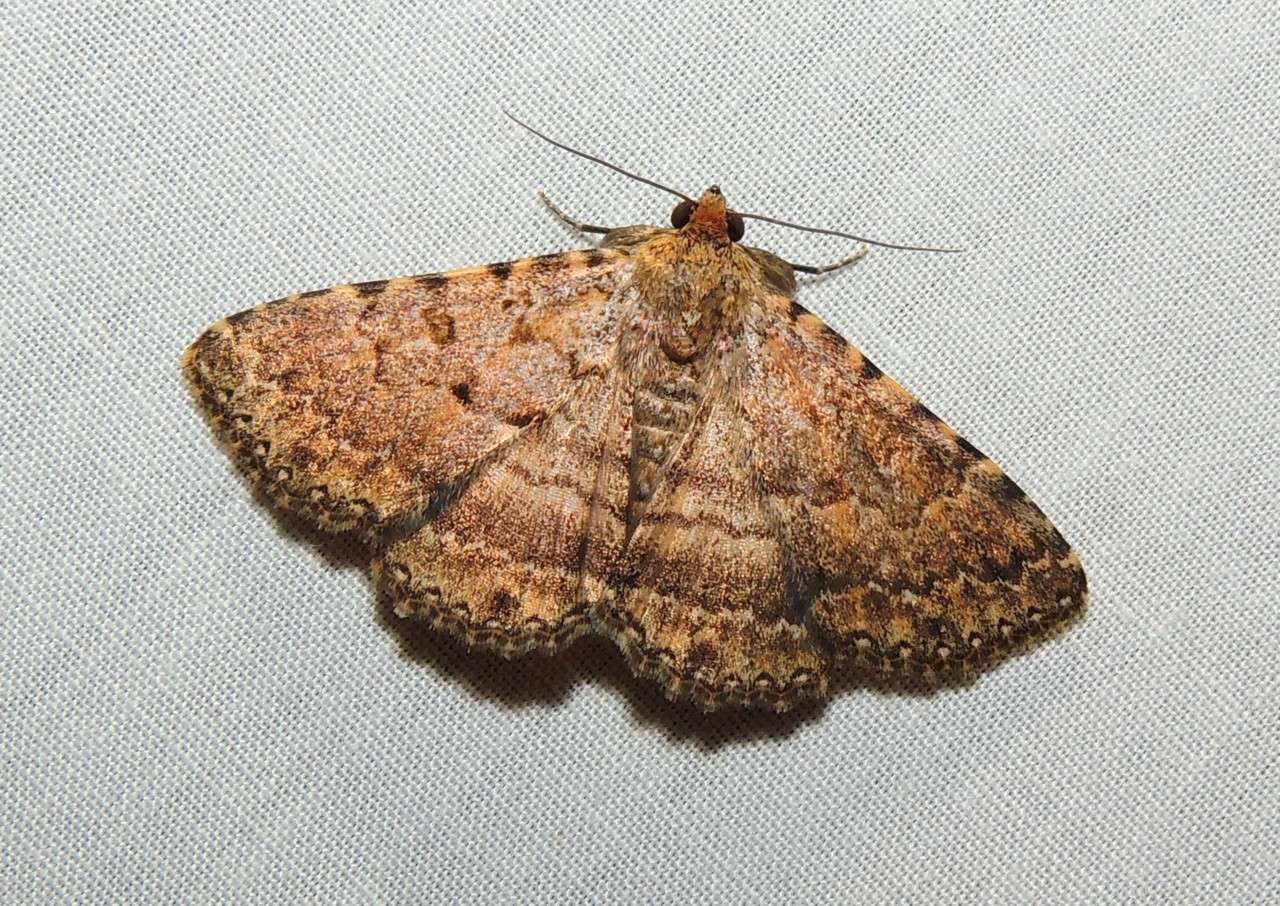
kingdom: Animalia
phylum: Arthropoda
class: Insecta
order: Lepidoptera
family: Erebidae
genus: Diatenes
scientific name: Diatenes aglossoides
